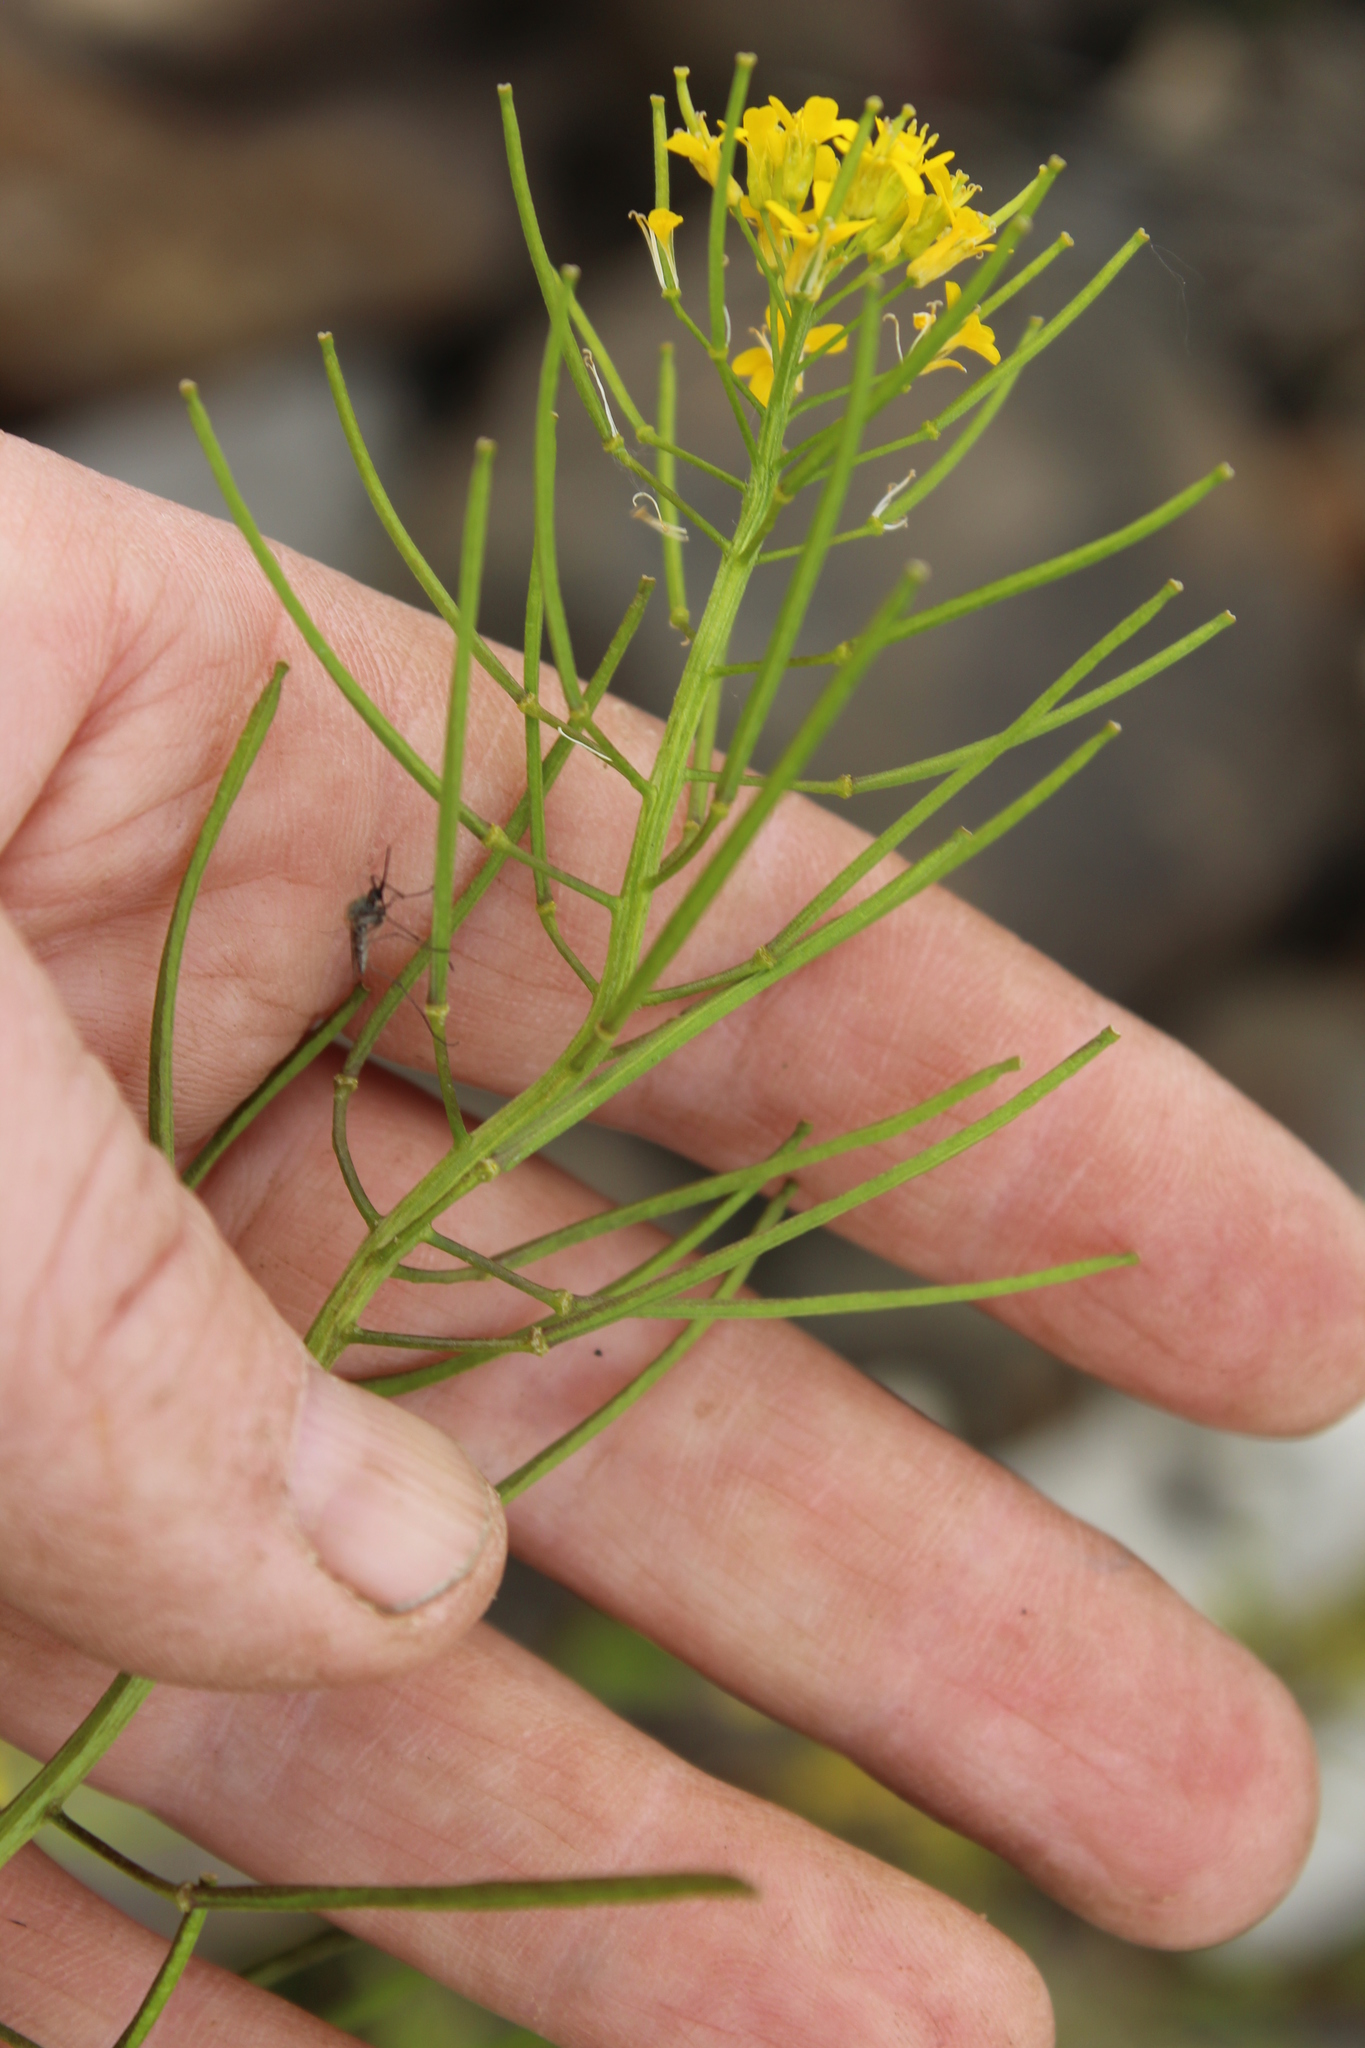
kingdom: Plantae
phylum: Tracheophyta
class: Magnoliopsida
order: Brassicales
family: Brassicaceae
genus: Erysimum
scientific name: Erysimum cheiranthoides
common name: Treacle mustard
